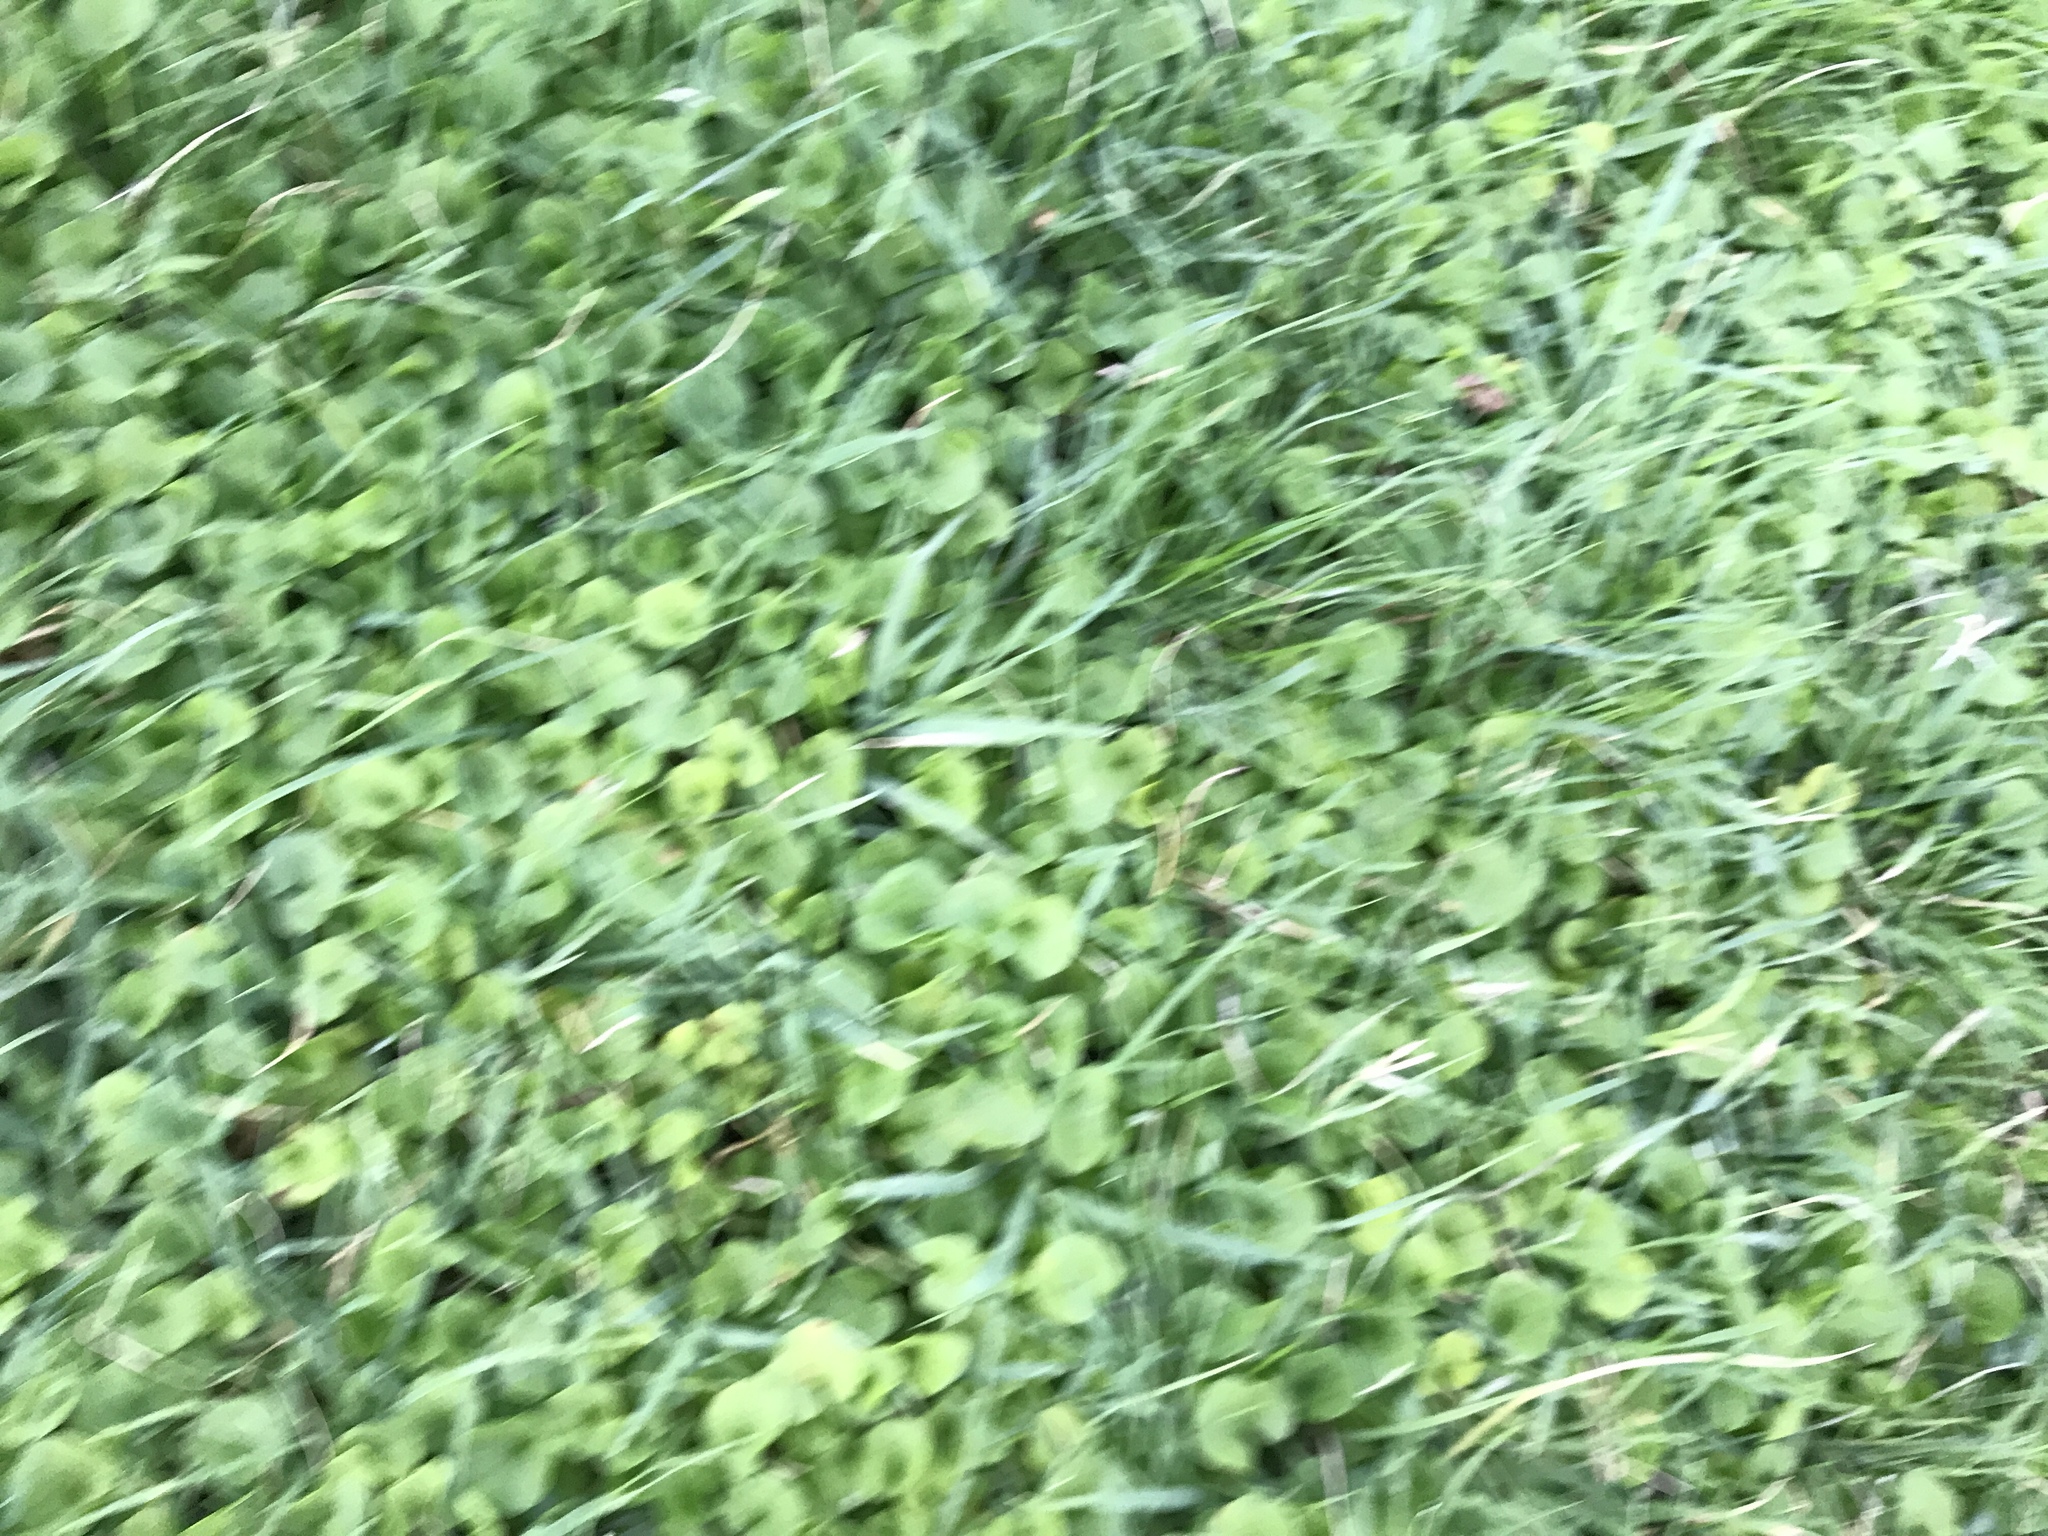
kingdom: Plantae
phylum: Tracheophyta
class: Magnoliopsida
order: Solanales
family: Convolvulaceae
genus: Dichondra
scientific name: Dichondra micrantha
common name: Kidneyweed
